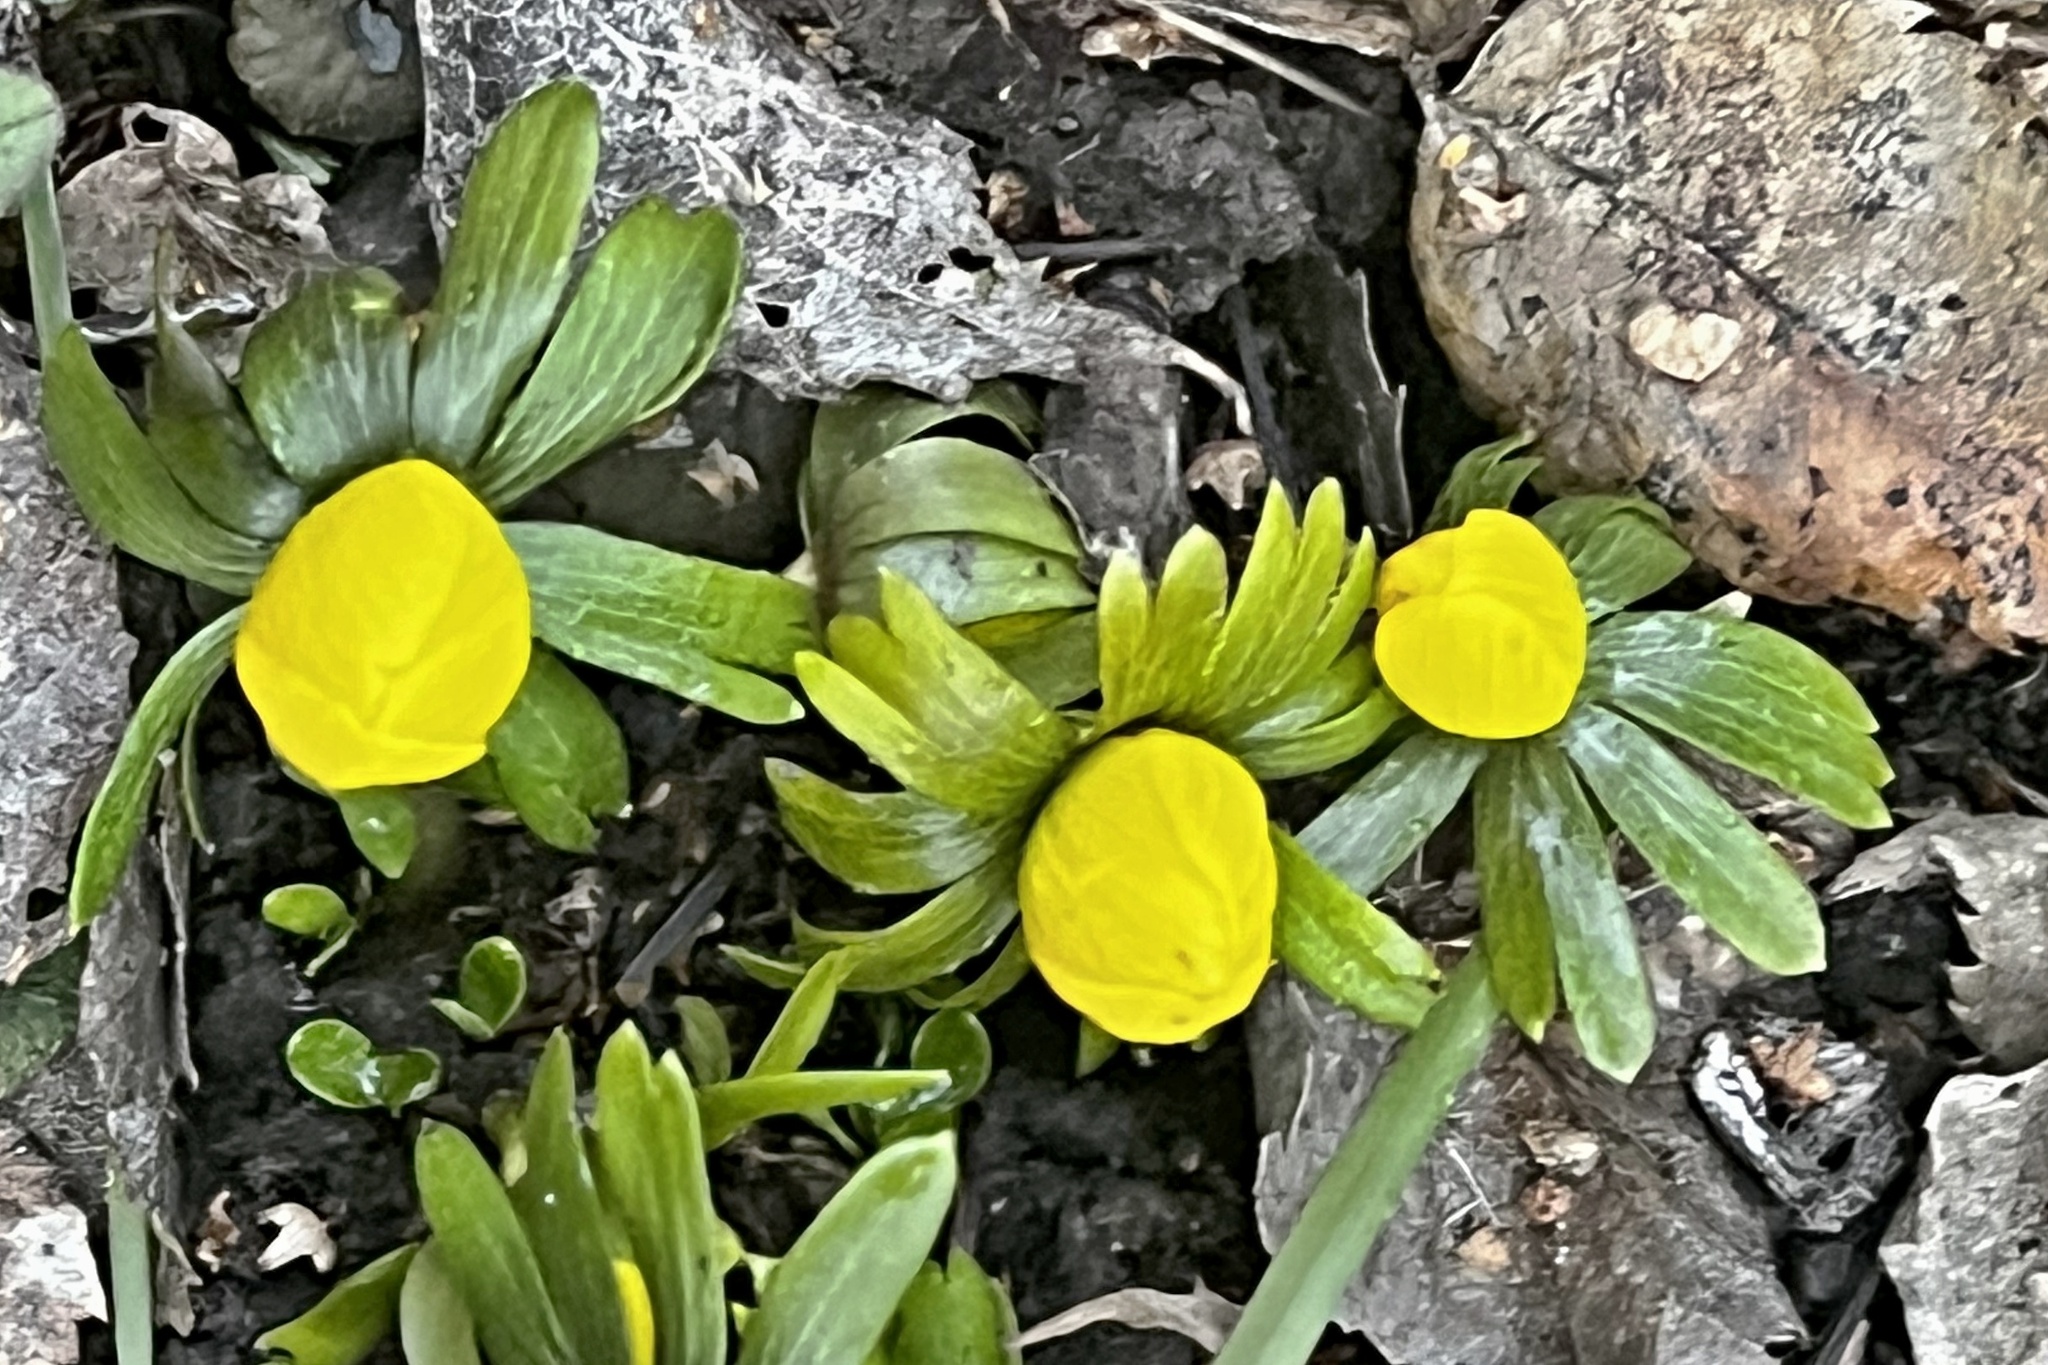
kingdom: Plantae
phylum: Tracheophyta
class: Magnoliopsida
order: Ranunculales
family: Ranunculaceae
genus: Eranthis
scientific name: Eranthis hyemalis
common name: Winter aconite
